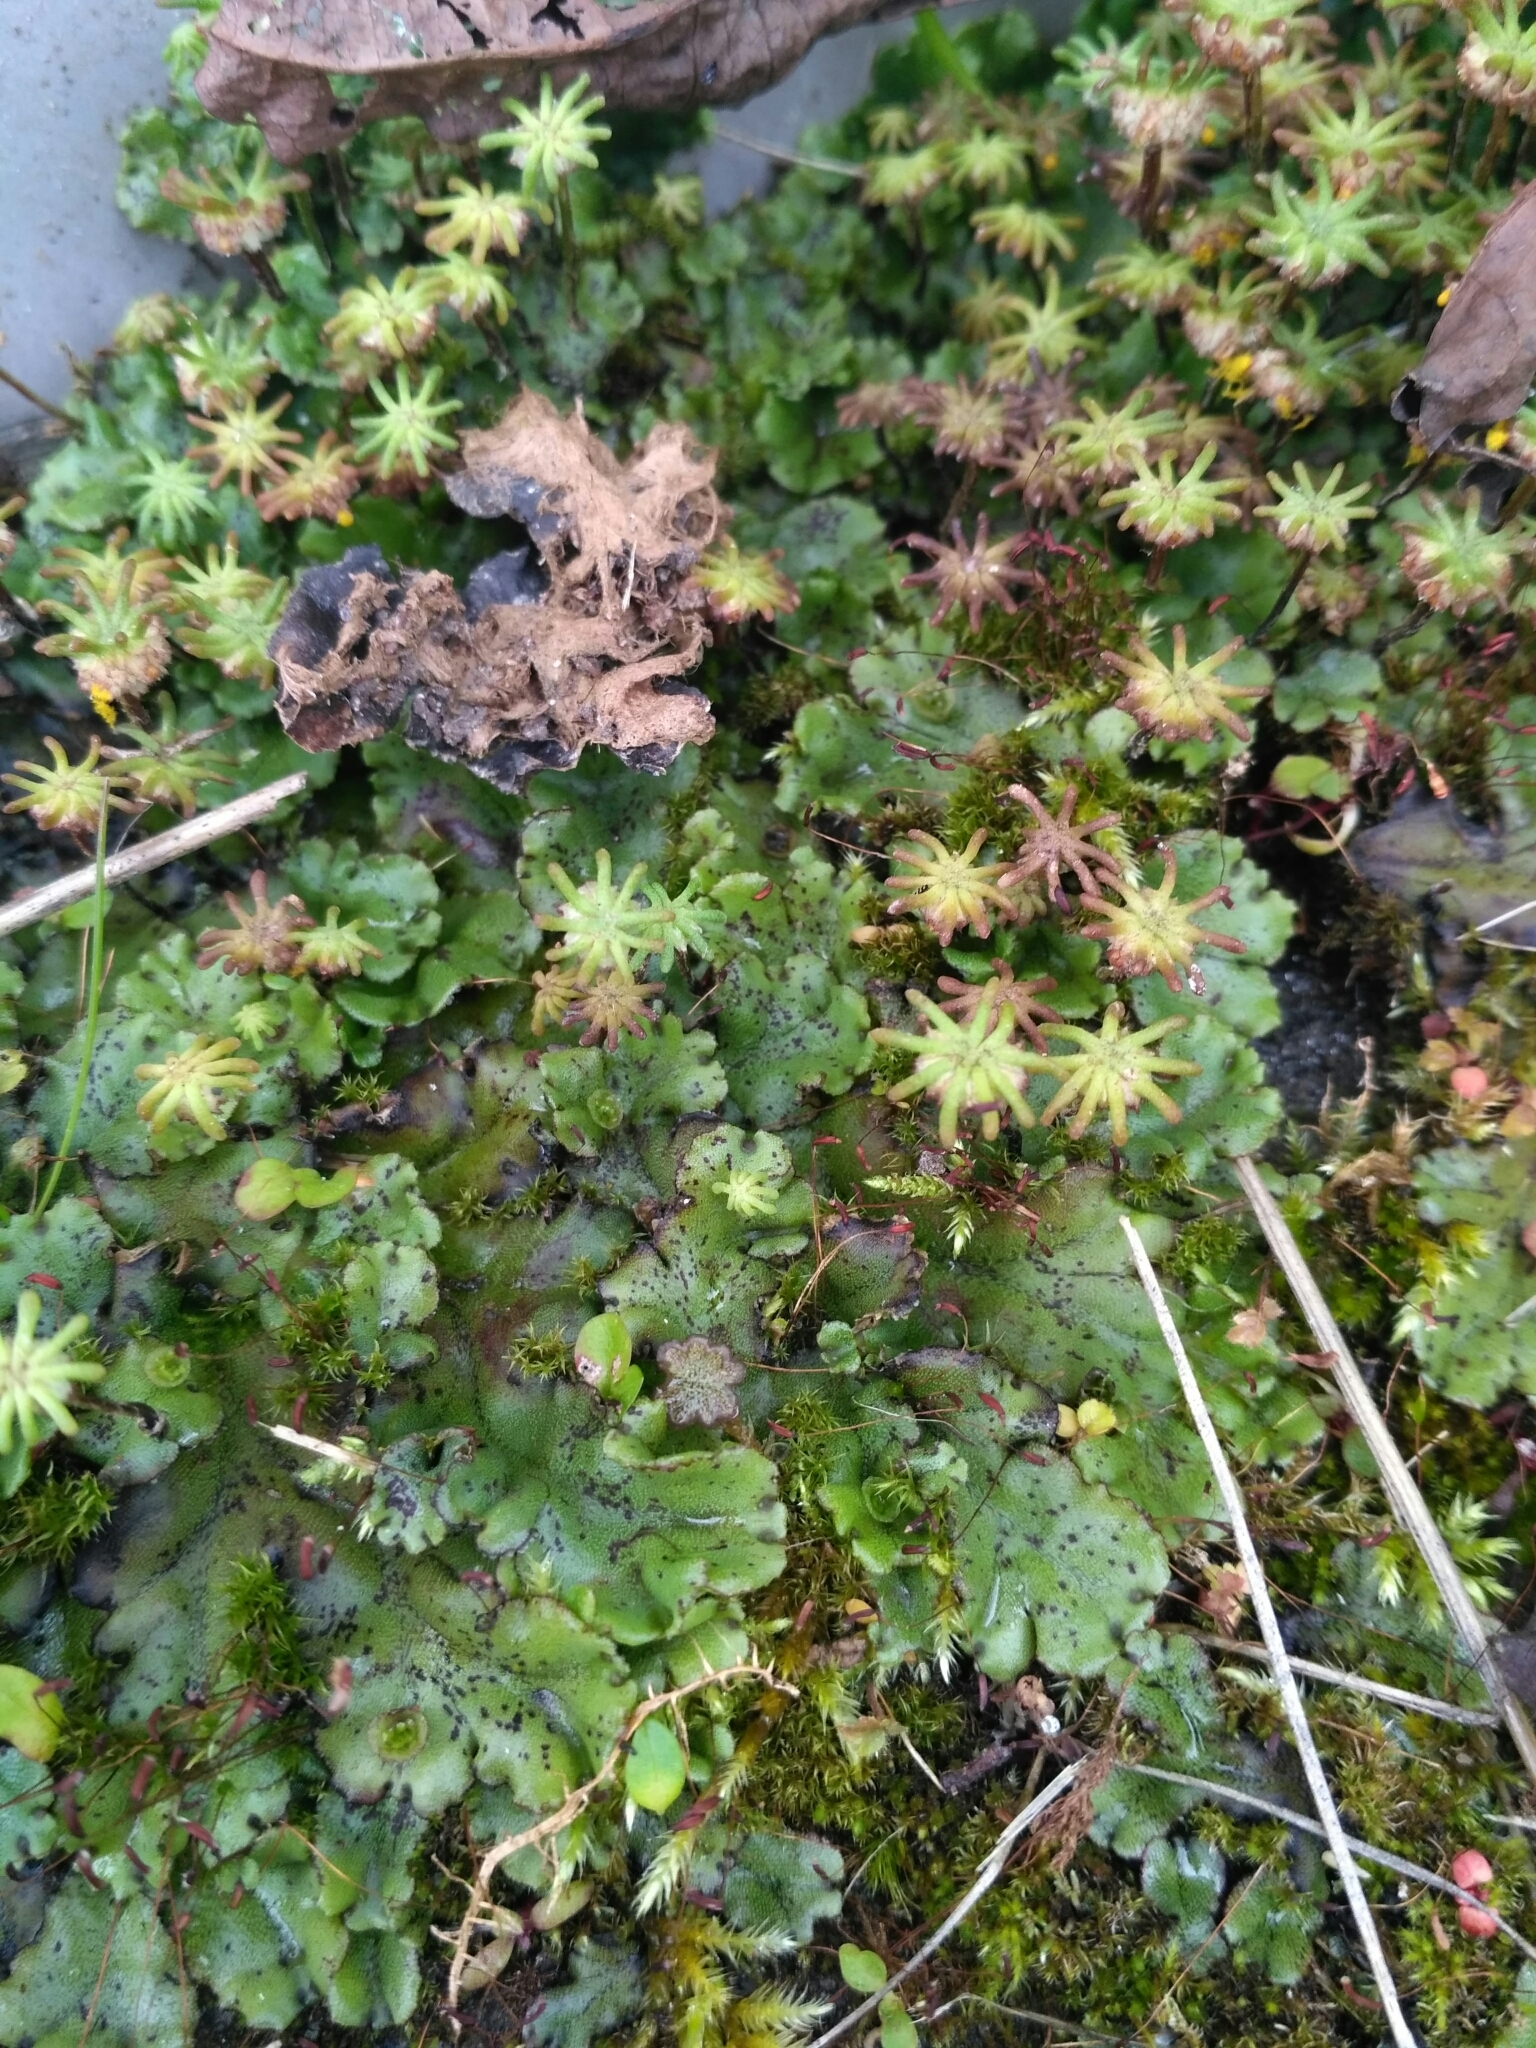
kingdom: Plantae
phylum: Marchantiophyta
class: Marchantiopsida
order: Marchantiales
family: Marchantiaceae
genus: Marchantia
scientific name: Marchantia polymorpha
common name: Common liverwort
